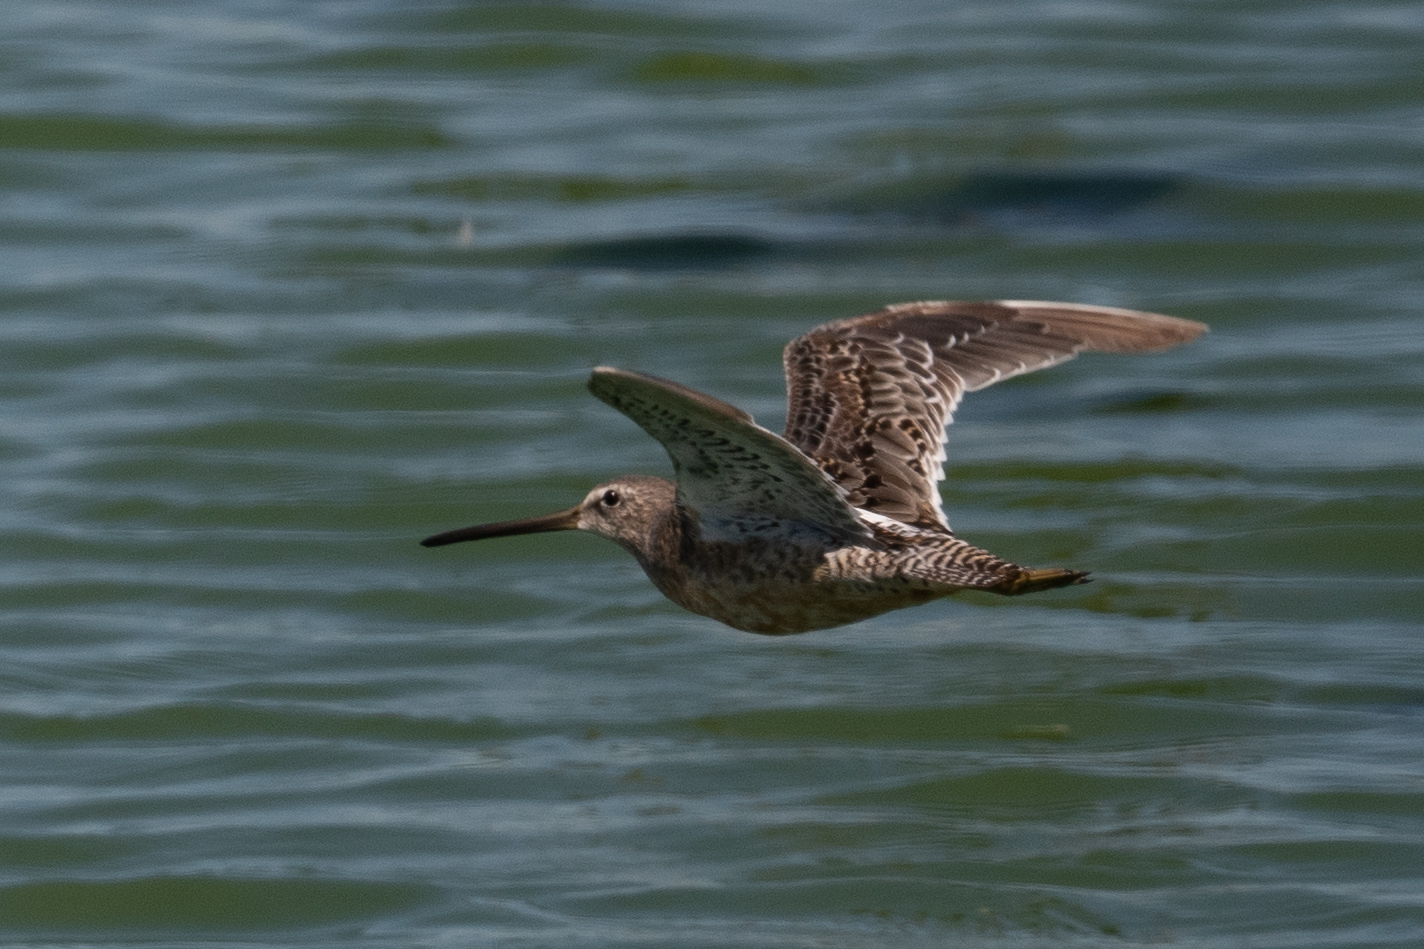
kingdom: Animalia
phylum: Chordata
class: Aves
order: Charadriiformes
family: Scolopacidae
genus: Limnodromus
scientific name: Limnodromus scolopaceus
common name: Long-billed dowitcher
